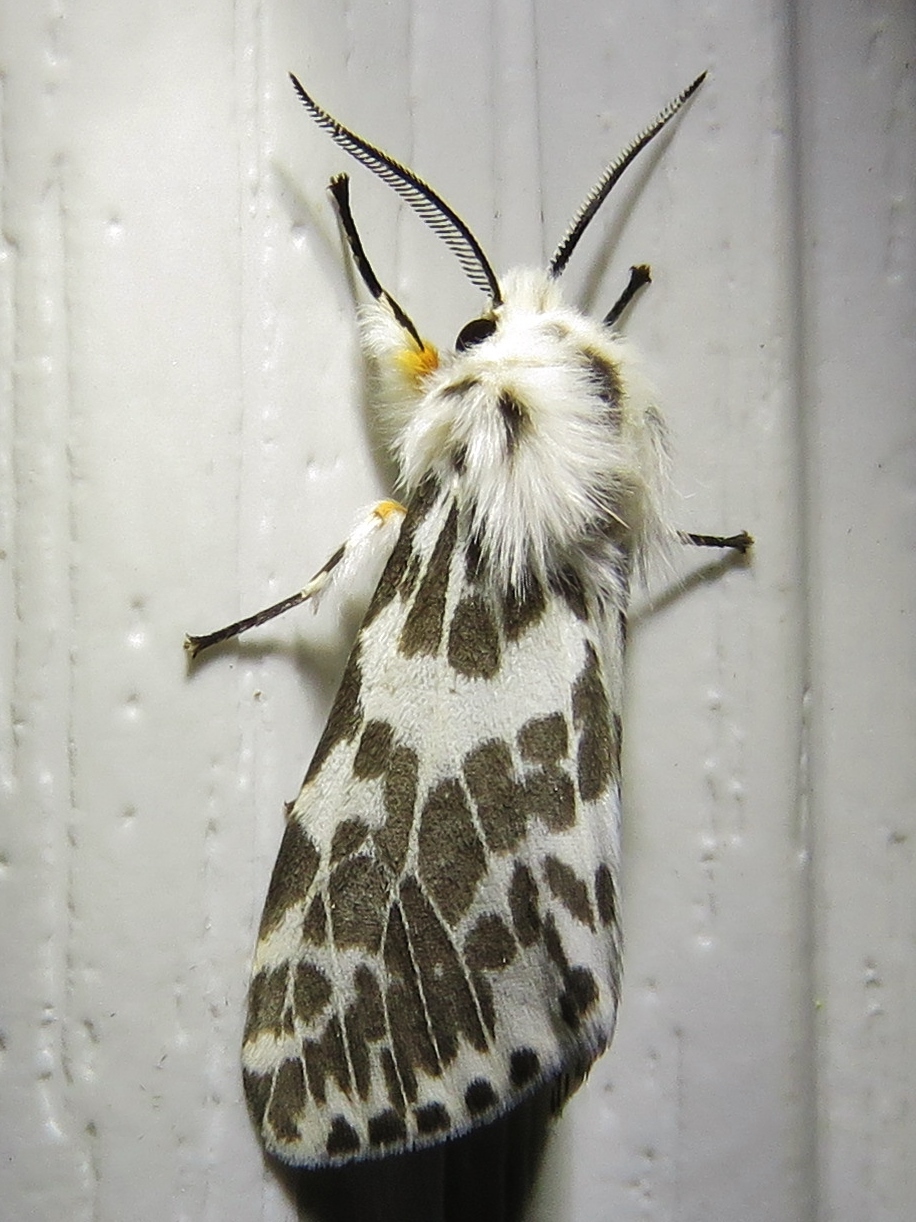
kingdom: Animalia
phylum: Arthropoda
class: Insecta
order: Lepidoptera
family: Erebidae
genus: Hyphantria
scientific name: Hyphantria cunea
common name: American white moth
